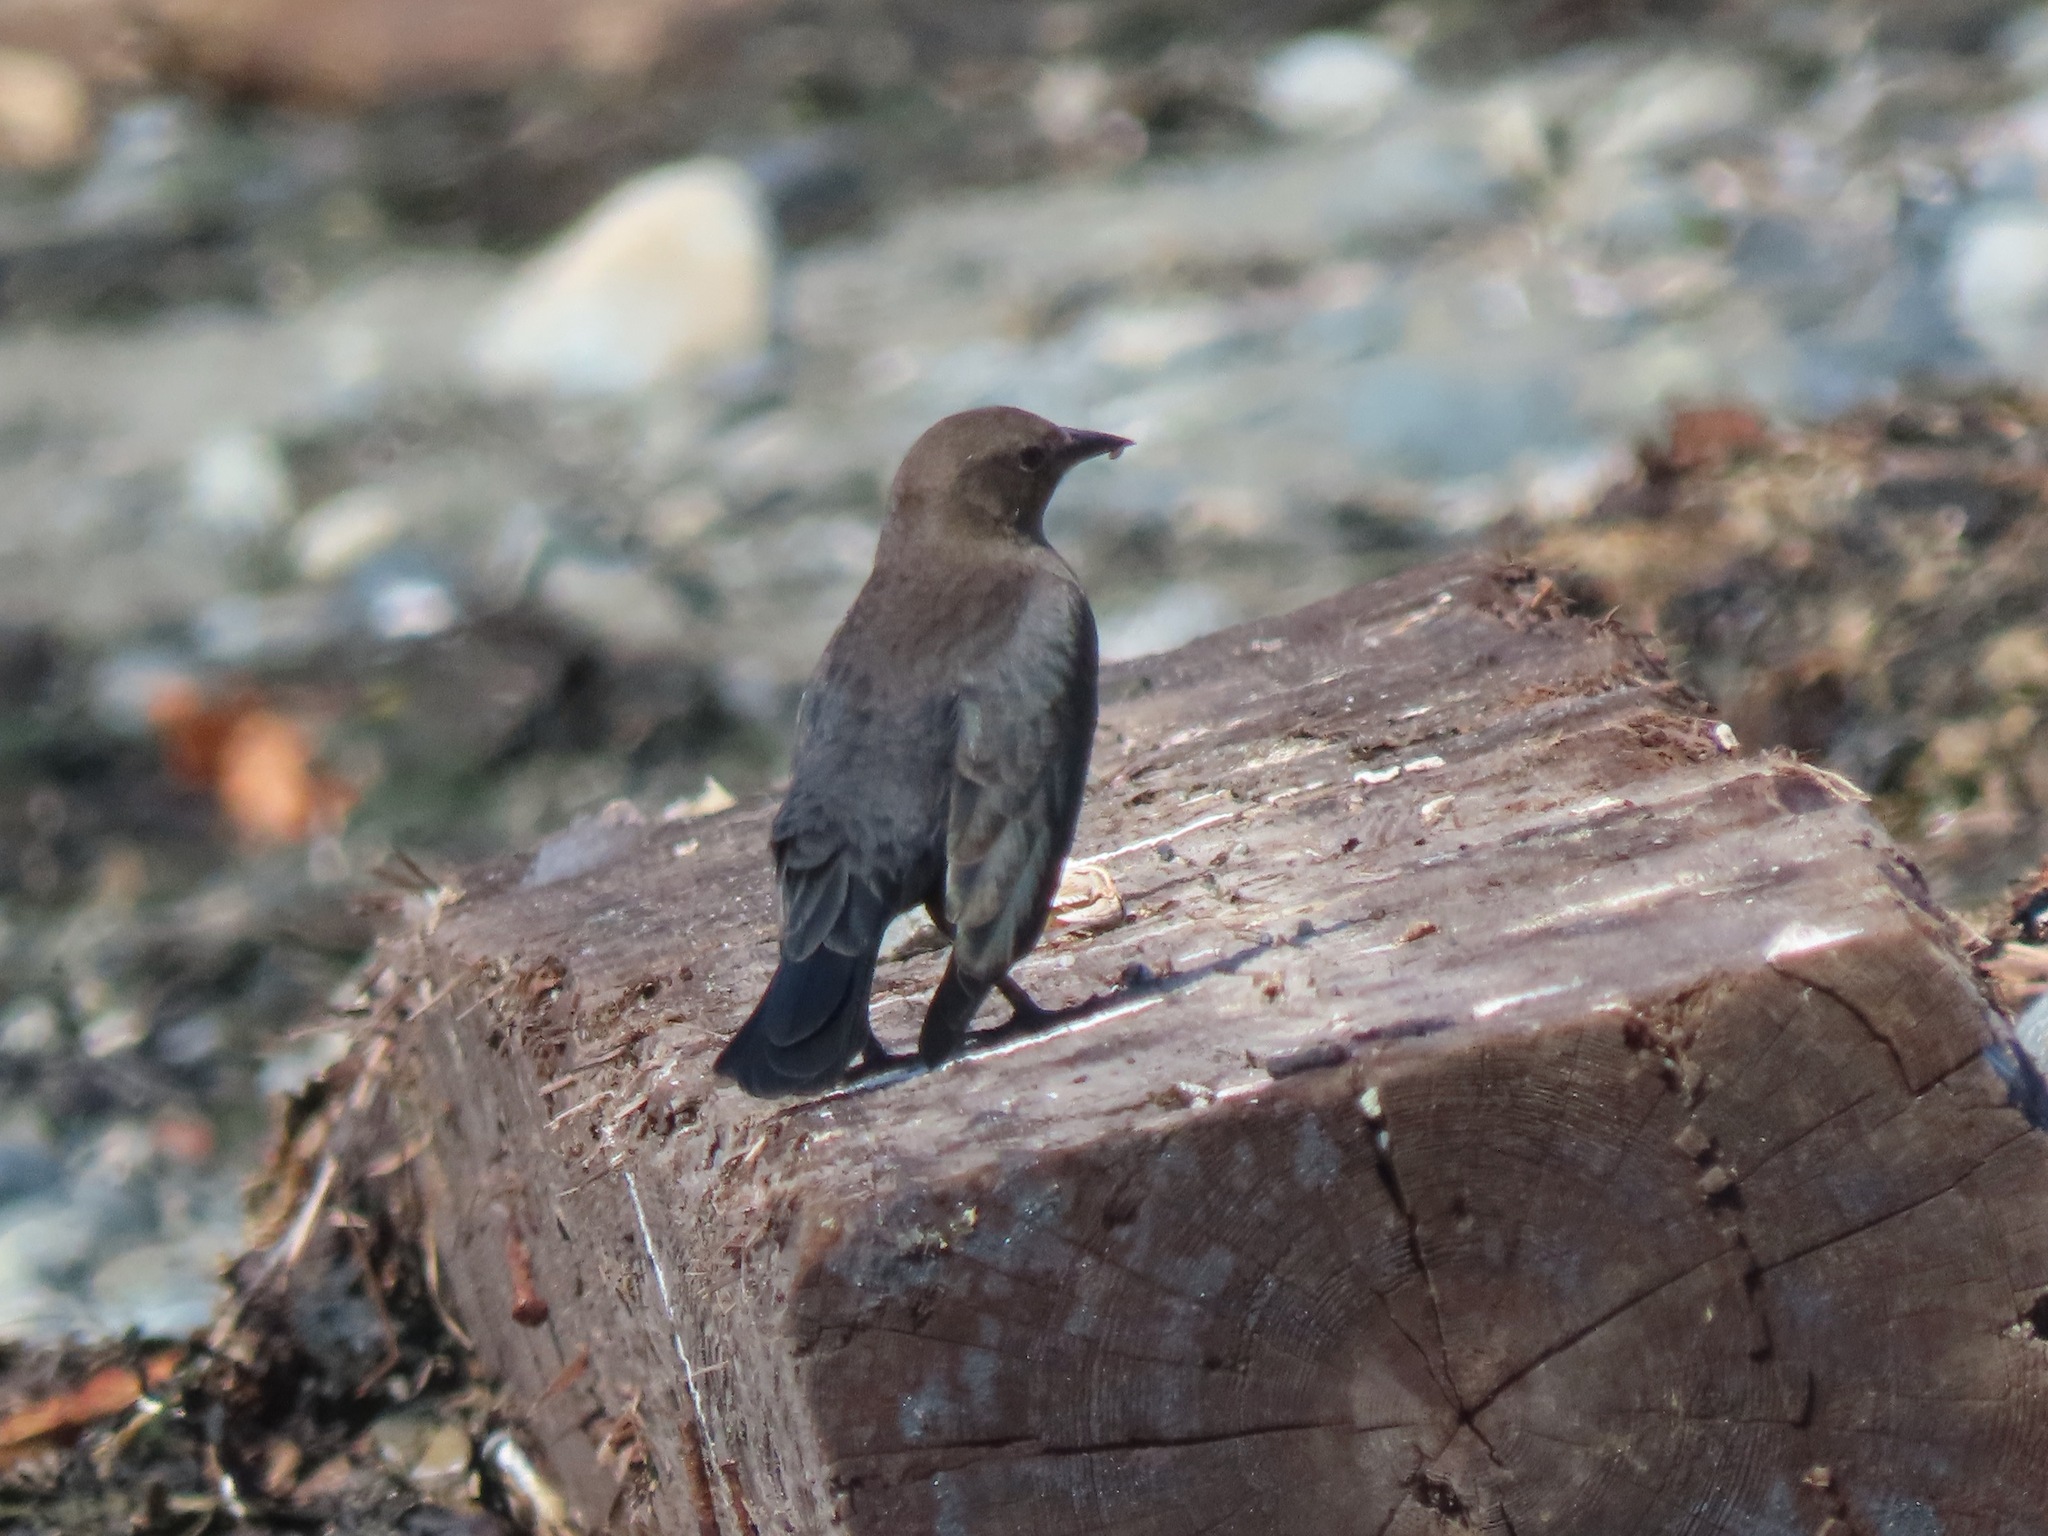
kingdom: Animalia
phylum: Chordata
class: Aves
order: Passeriformes
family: Icteridae
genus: Euphagus
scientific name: Euphagus cyanocephalus
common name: Brewer's blackbird
